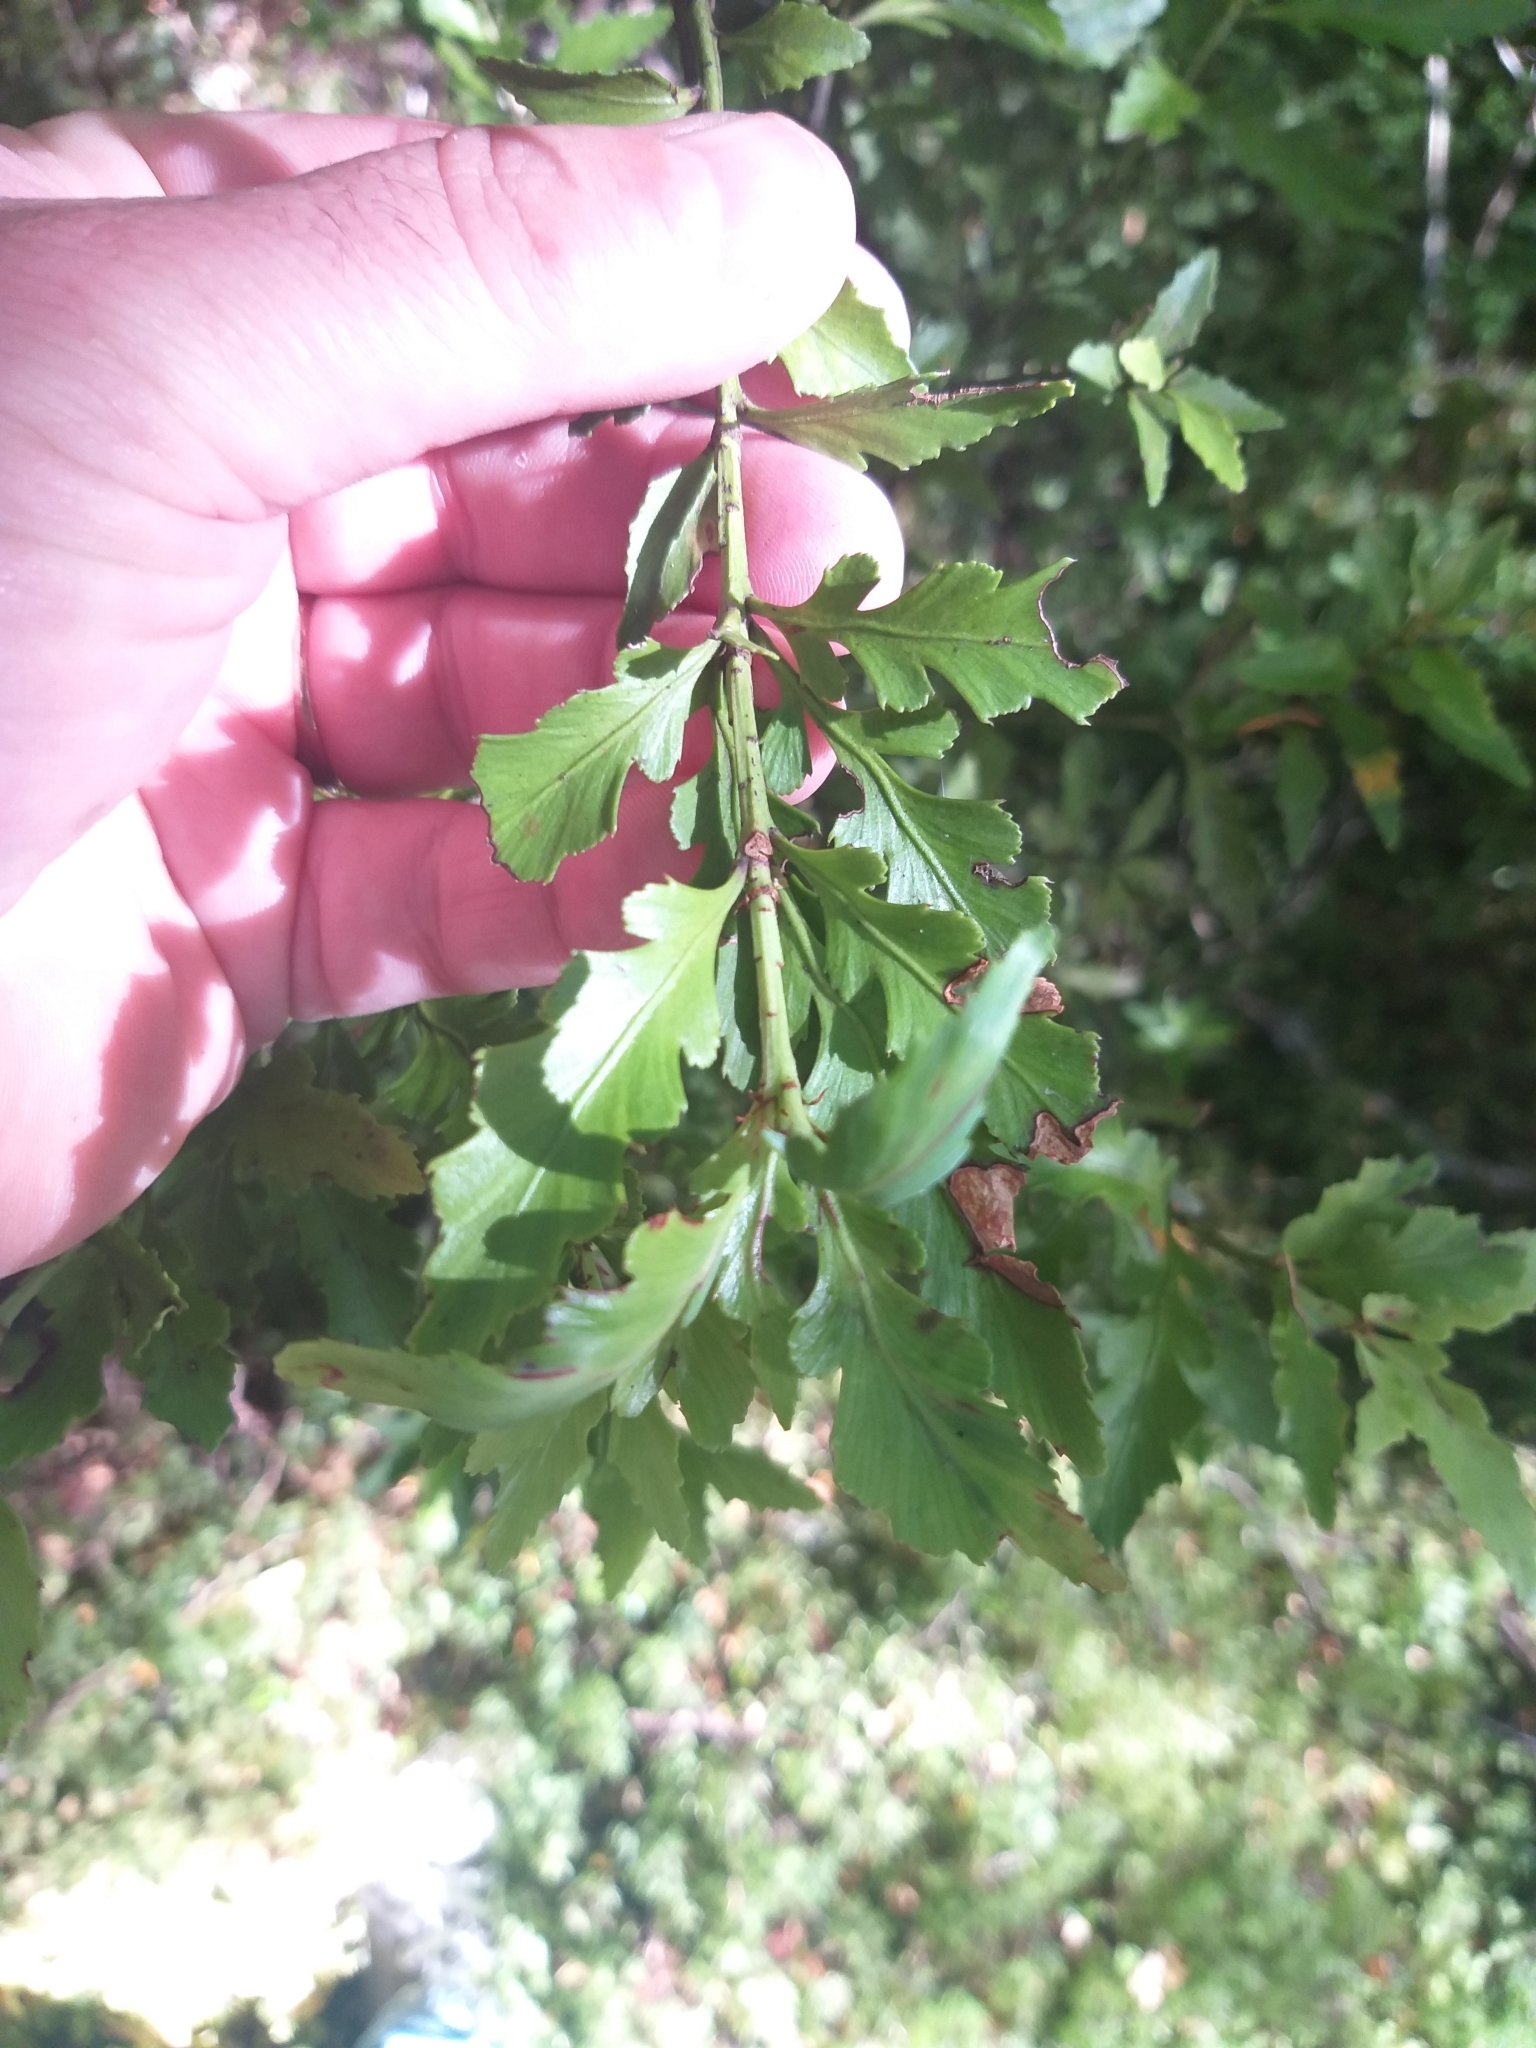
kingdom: Plantae
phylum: Tracheophyta
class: Pinopsida
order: Pinales
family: Phyllocladaceae
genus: Phyllocladus
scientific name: Phyllocladus trichomanoides
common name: Celery pine
